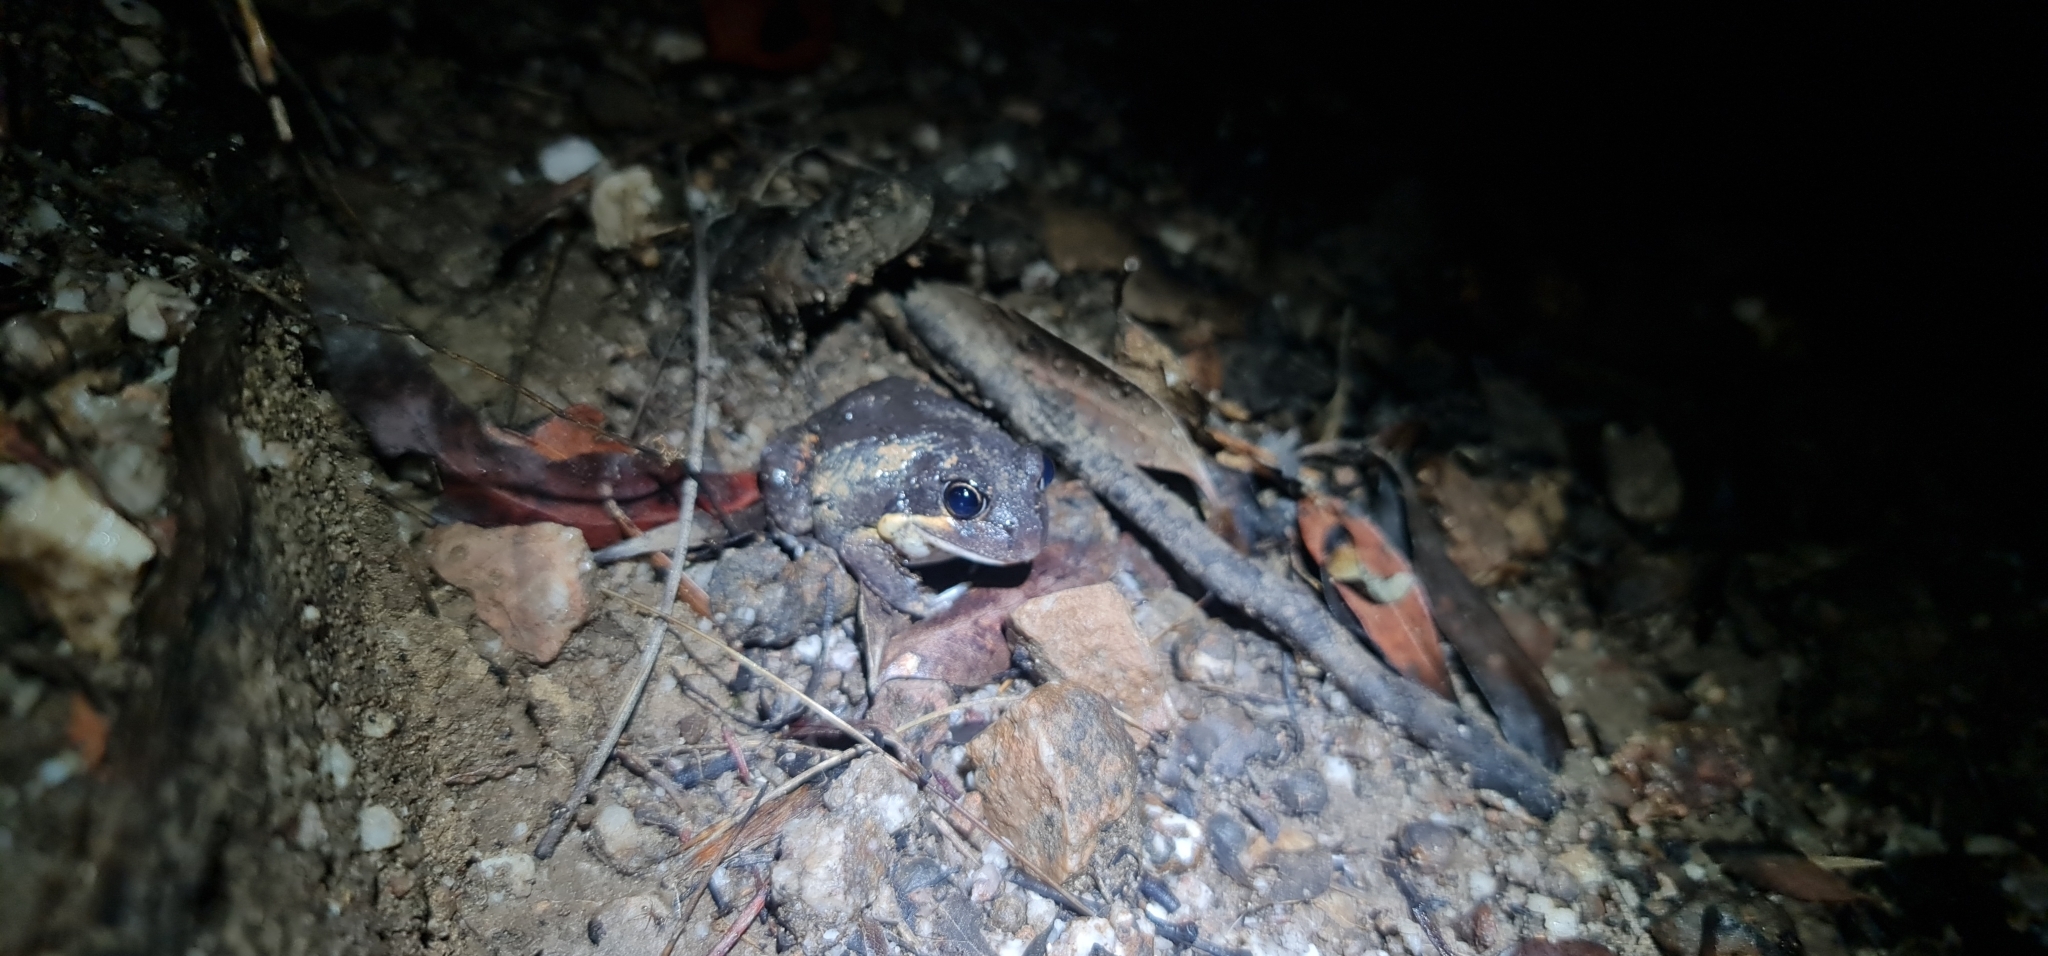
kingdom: Animalia
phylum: Chordata
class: Amphibia
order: Anura
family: Limnodynastidae
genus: Limnodynastes
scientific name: Limnodynastes terraereginae
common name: Northern banjo frog
